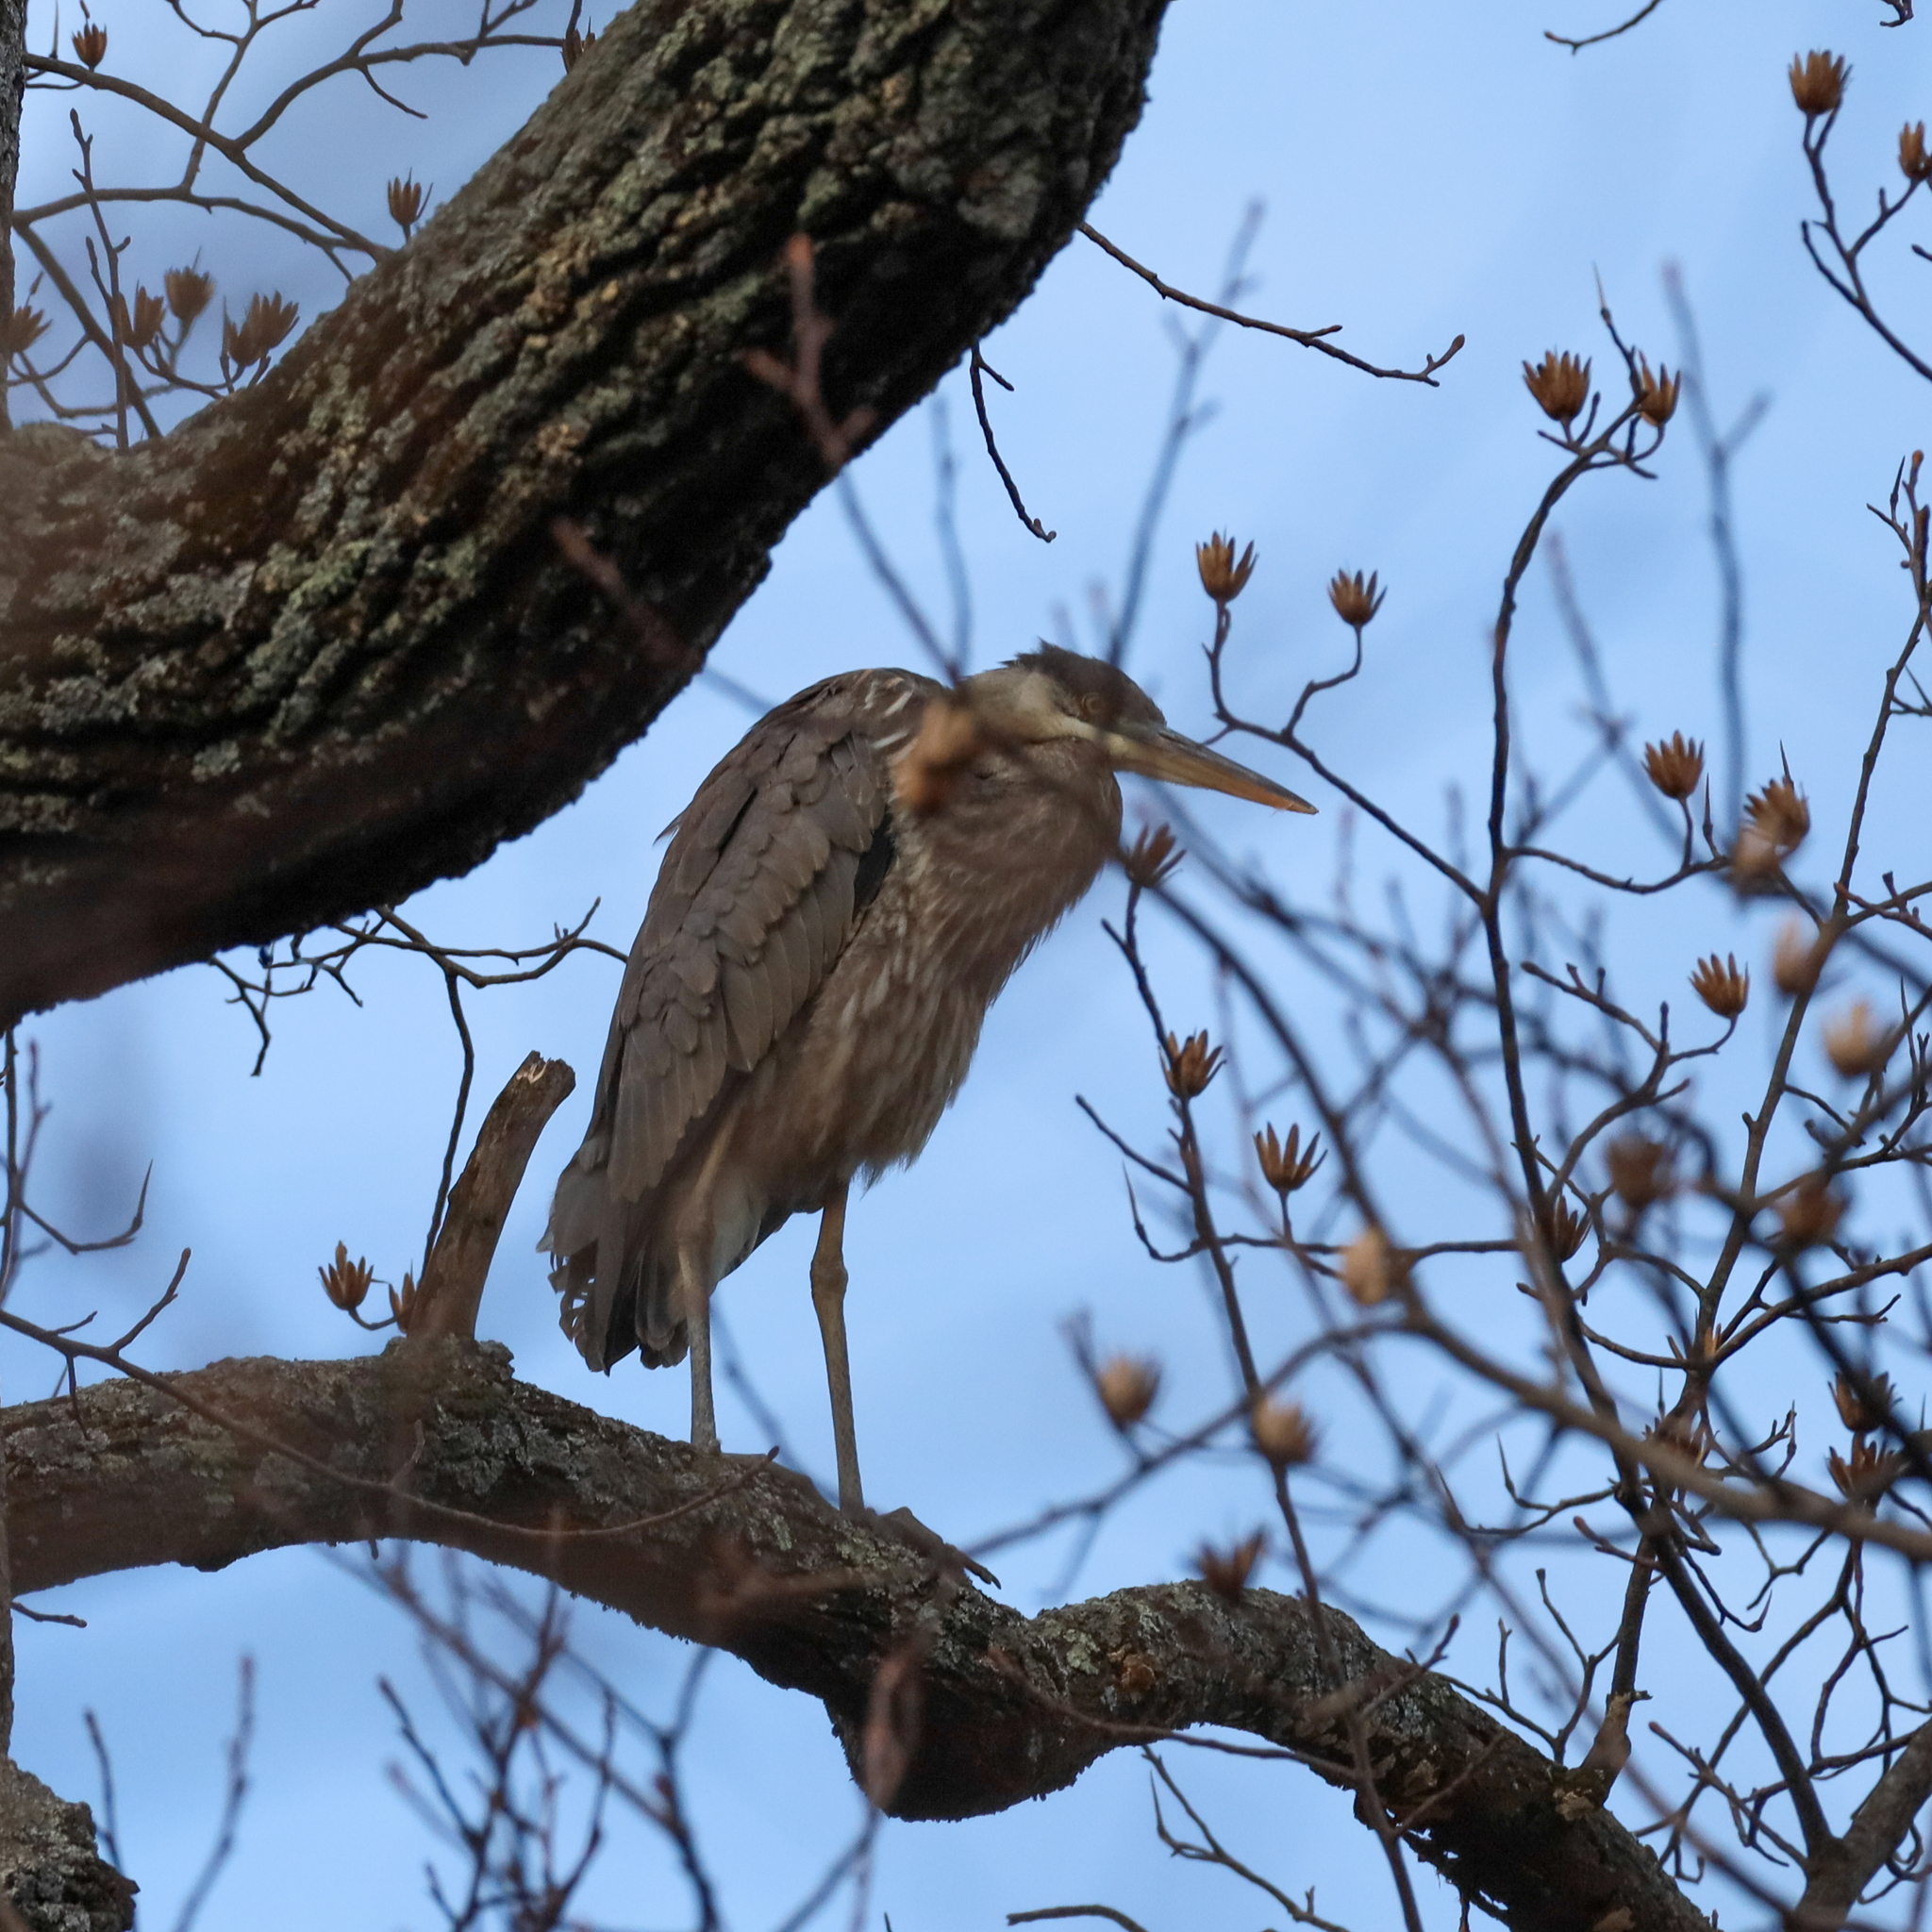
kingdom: Animalia
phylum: Chordata
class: Aves
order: Pelecaniformes
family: Ardeidae
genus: Ardea
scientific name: Ardea herodias
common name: Great blue heron
